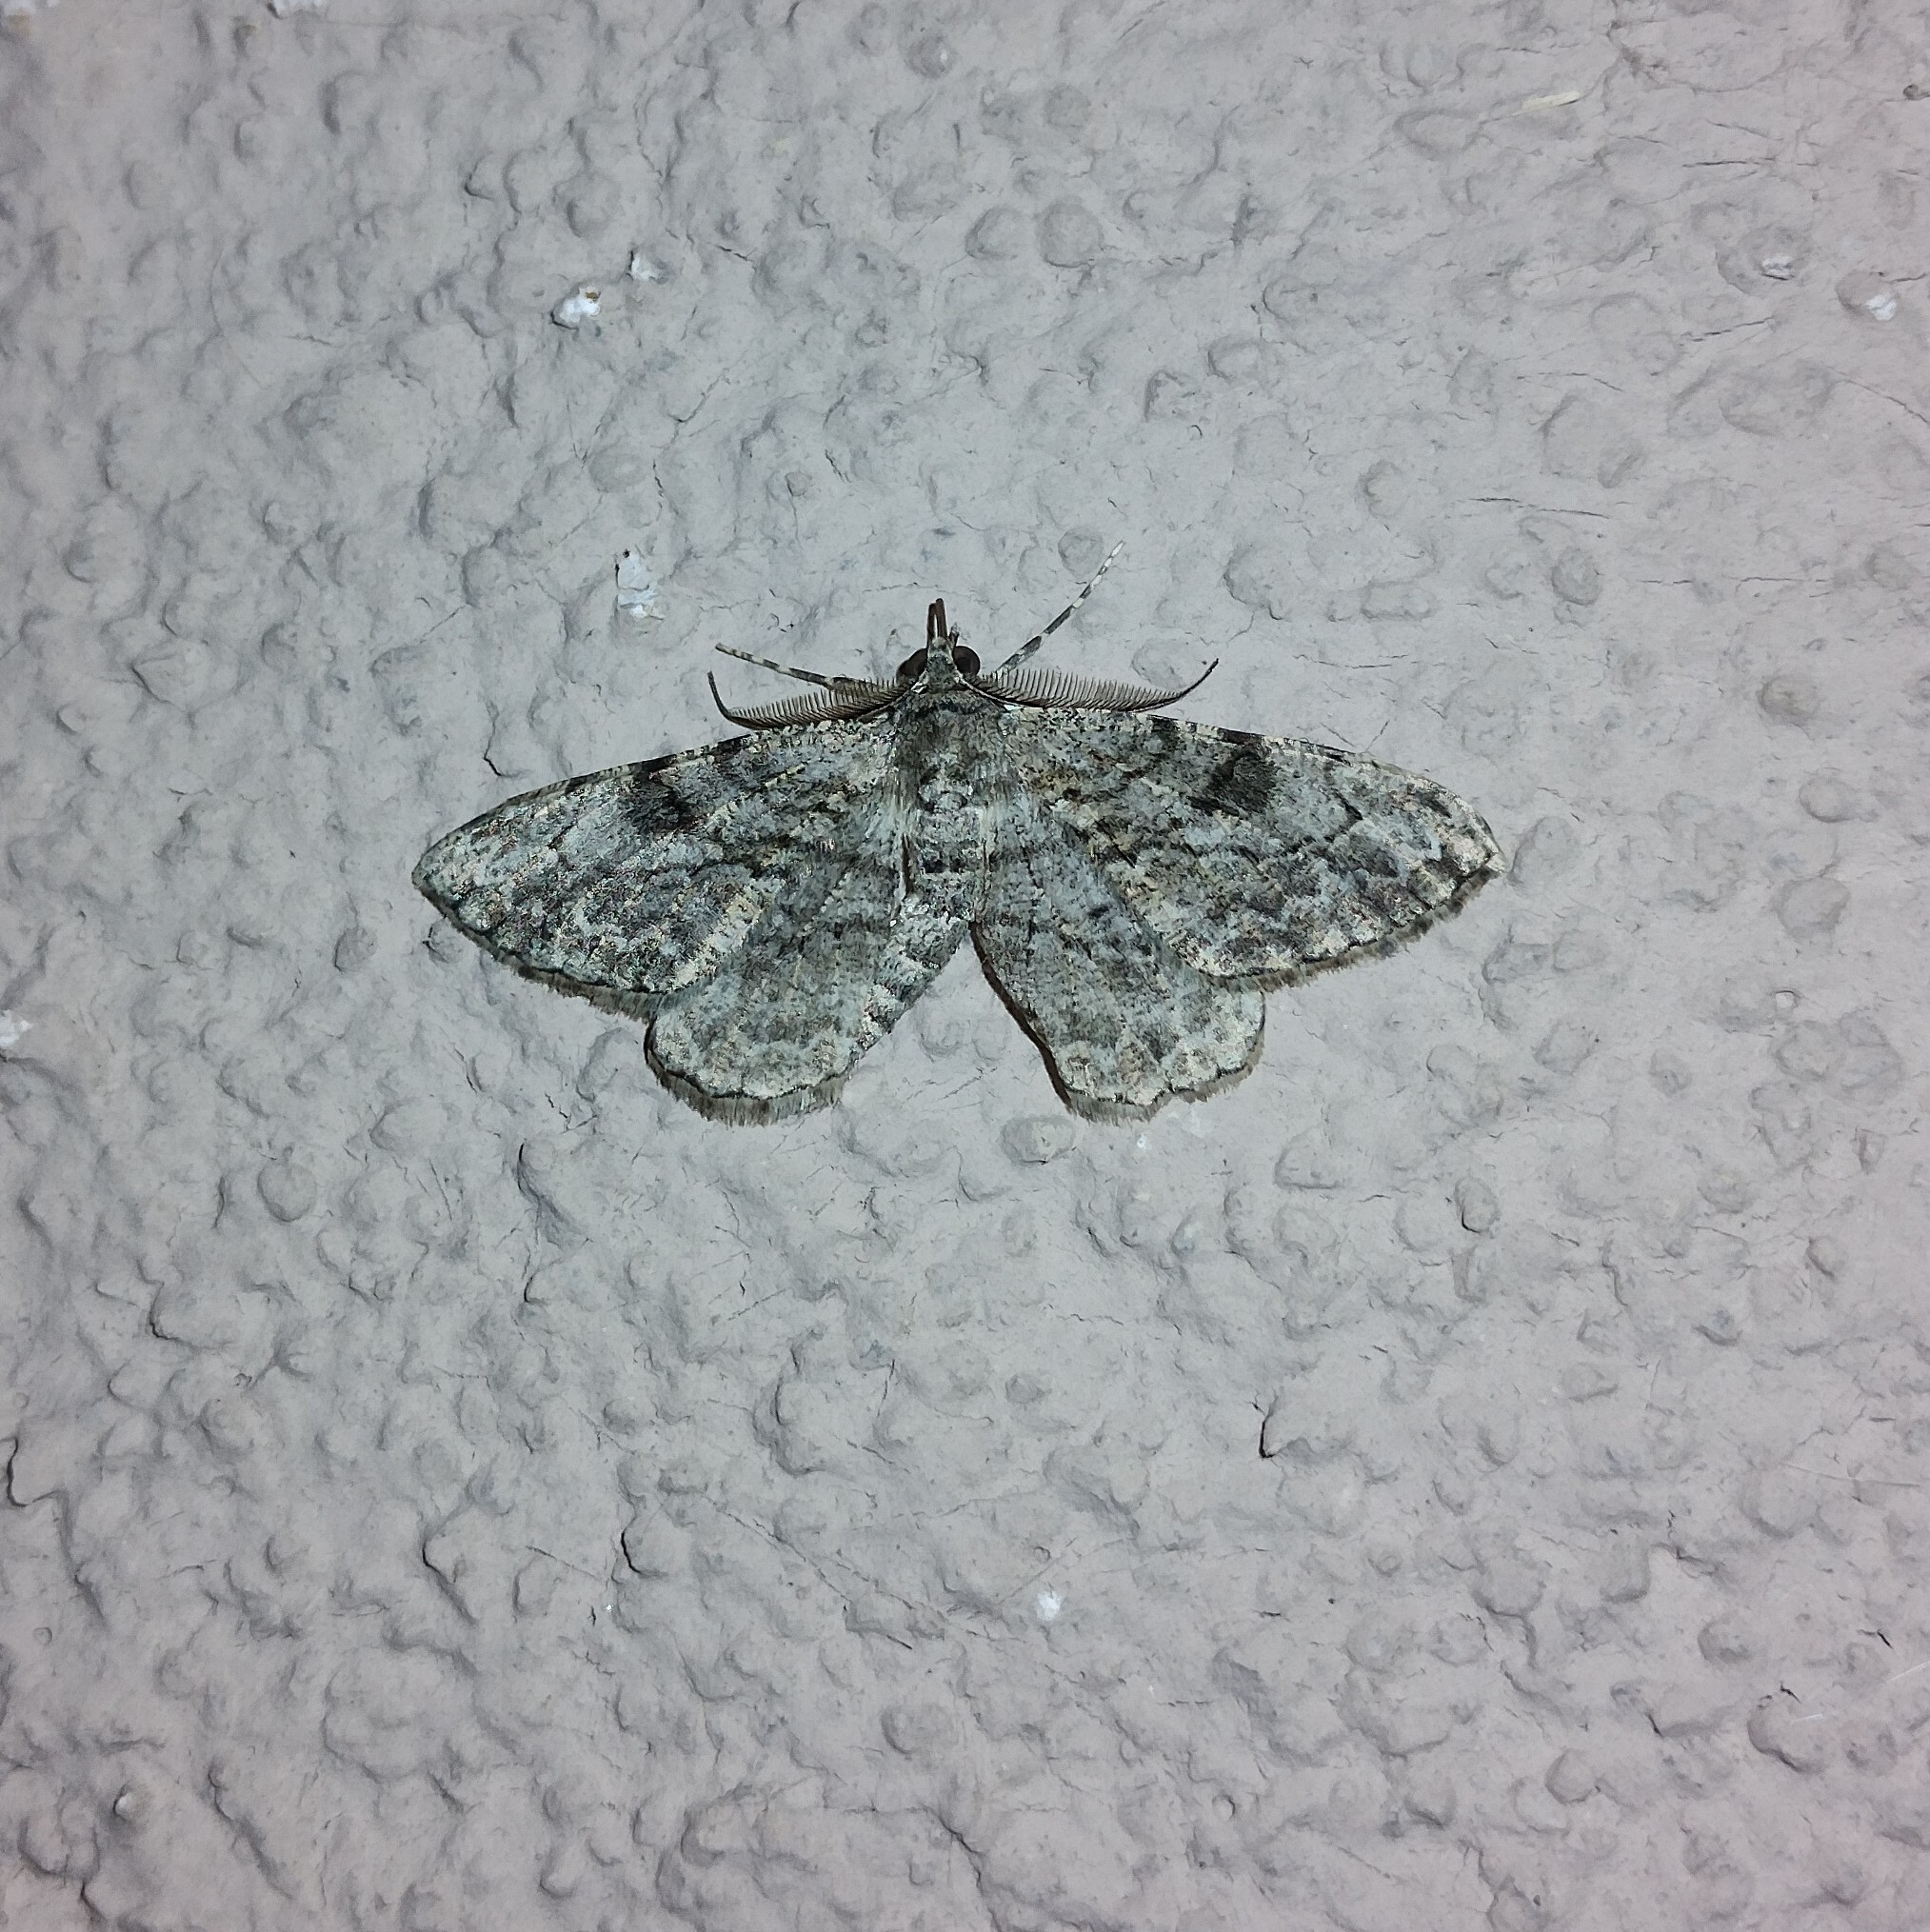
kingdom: Animalia
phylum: Arthropoda
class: Insecta
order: Lepidoptera
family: Geometridae
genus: Peribatodes
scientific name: Peribatodes rhomboidaria
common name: Willow beauty
